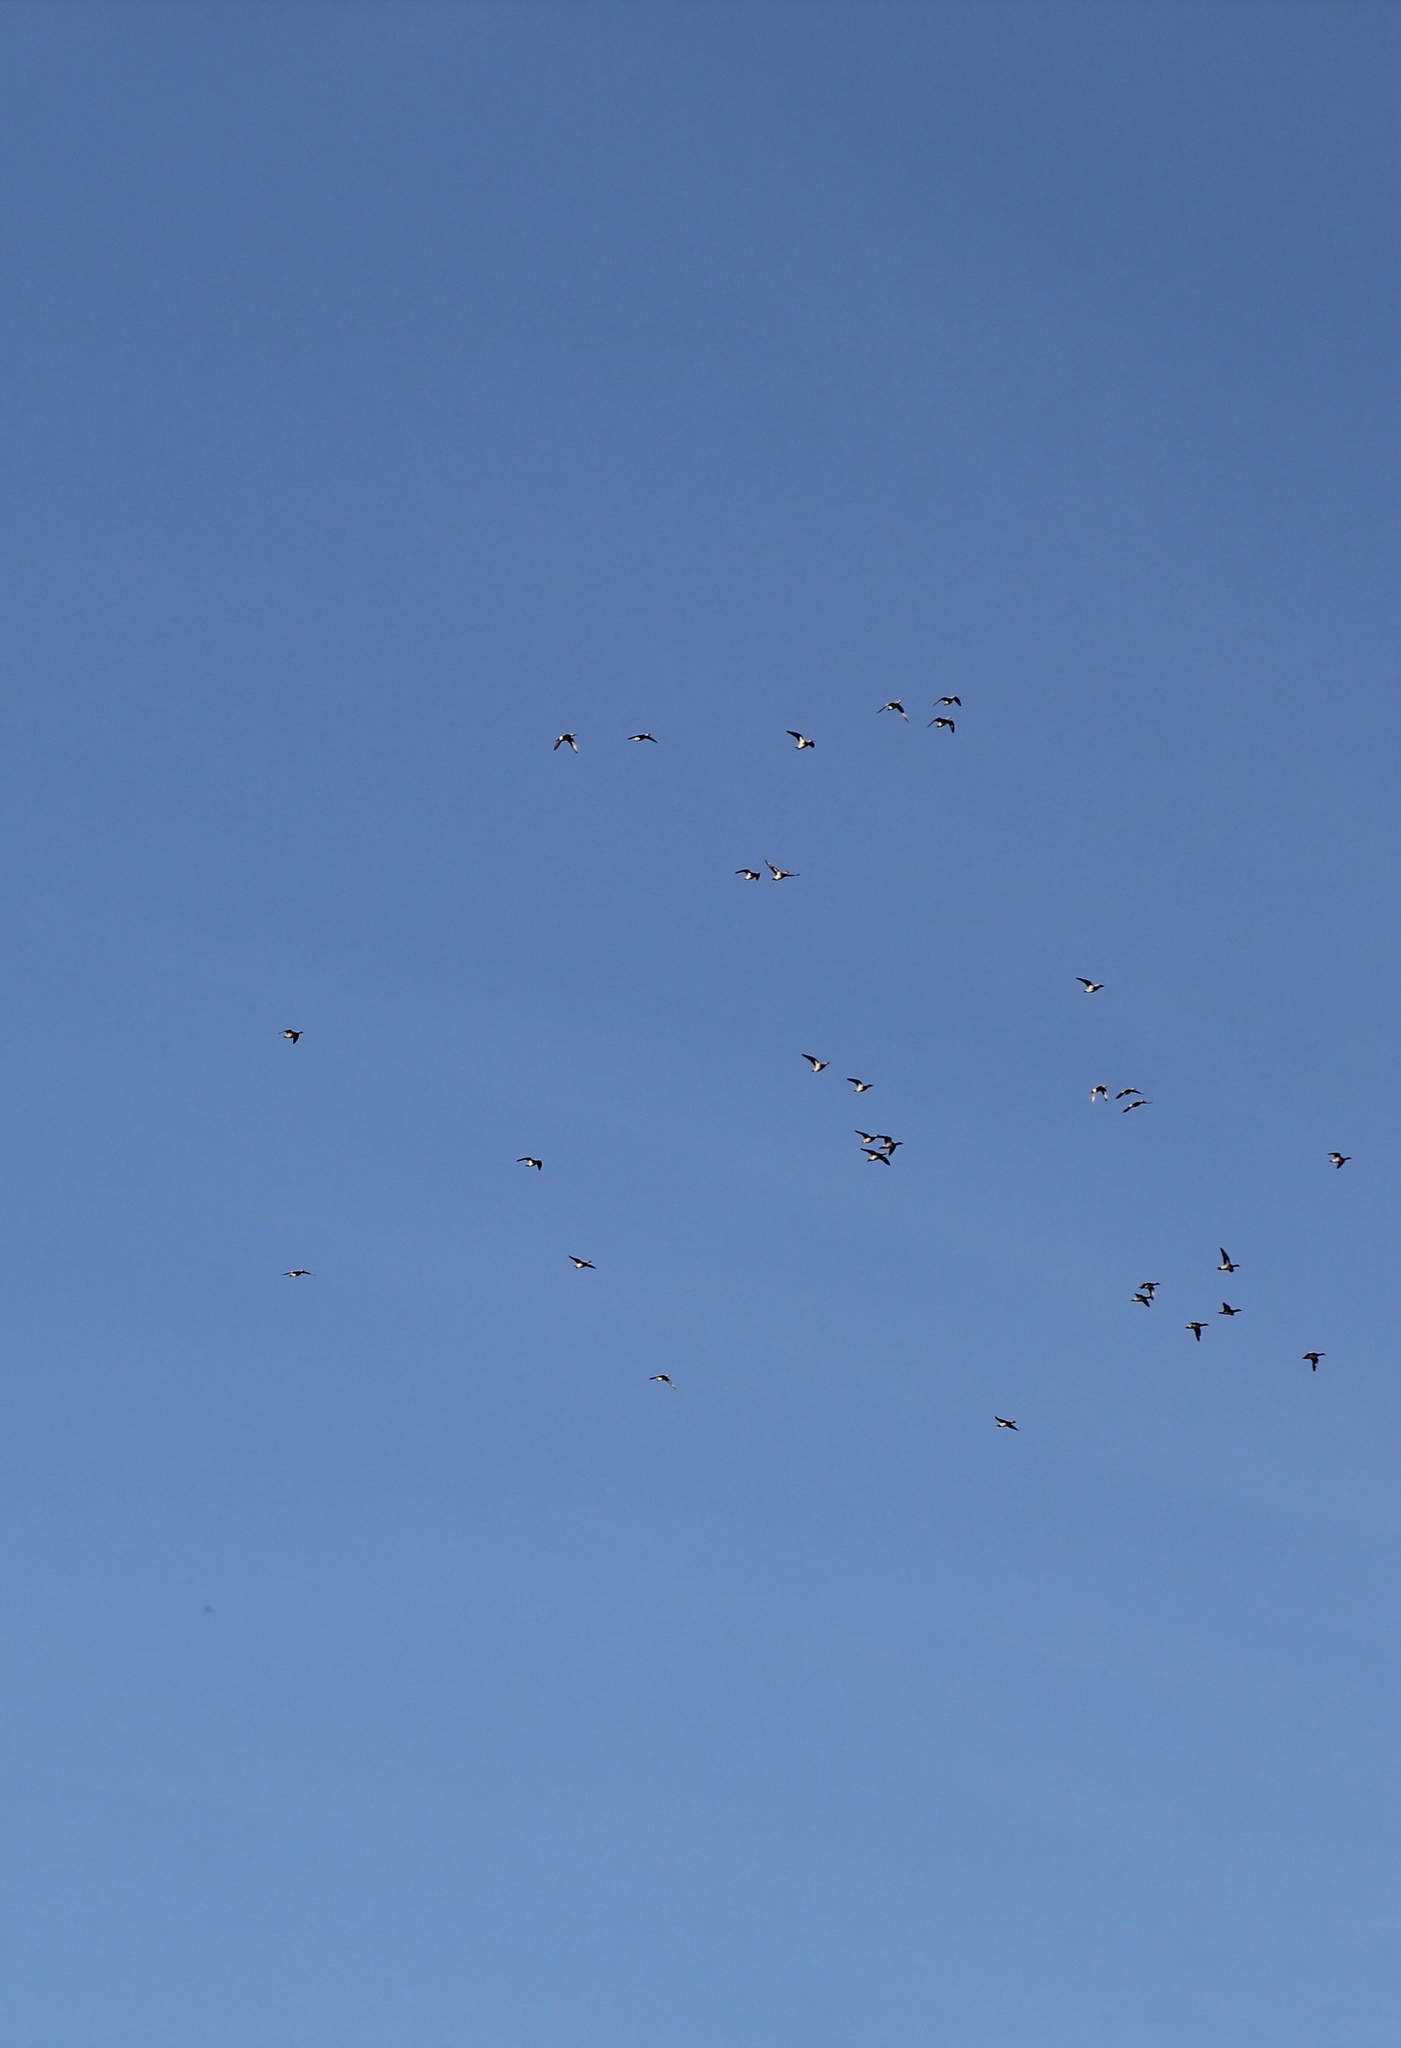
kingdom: Animalia
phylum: Chordata
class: Aves
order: Anseriformes
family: Anatidae
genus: Mareca
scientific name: Mareca americana
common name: American wigeon
